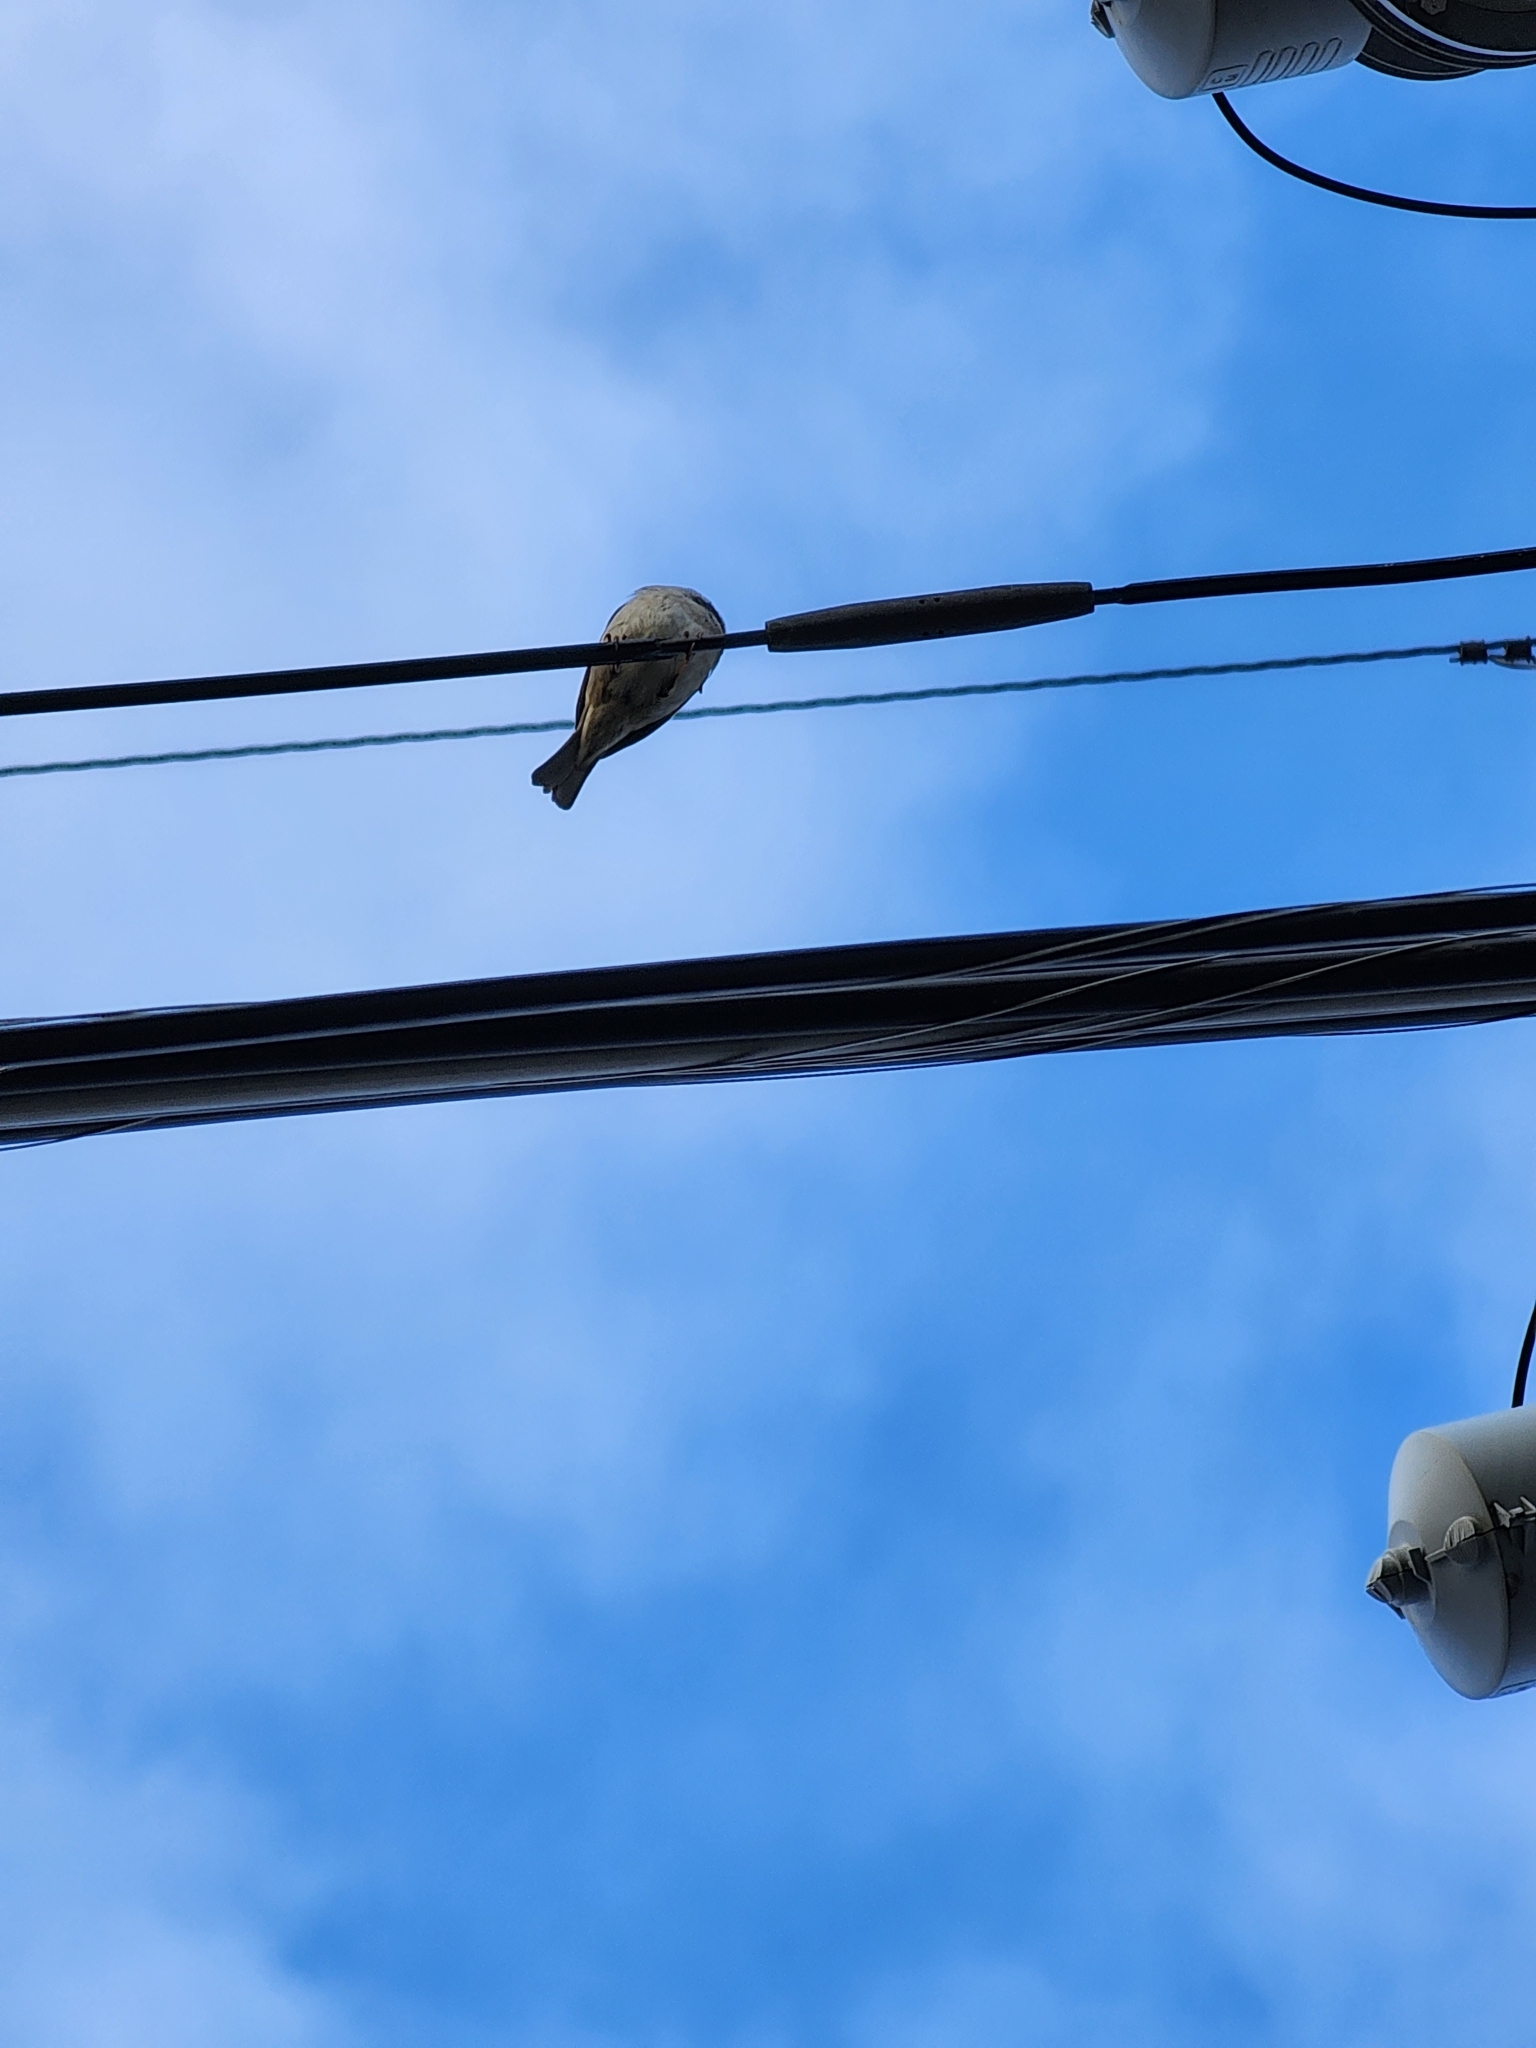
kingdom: Animalia
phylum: Chordata
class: Aves
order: Passeriformes
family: Passeridae
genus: Passer
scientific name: Passer domesticus
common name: House sparrow
